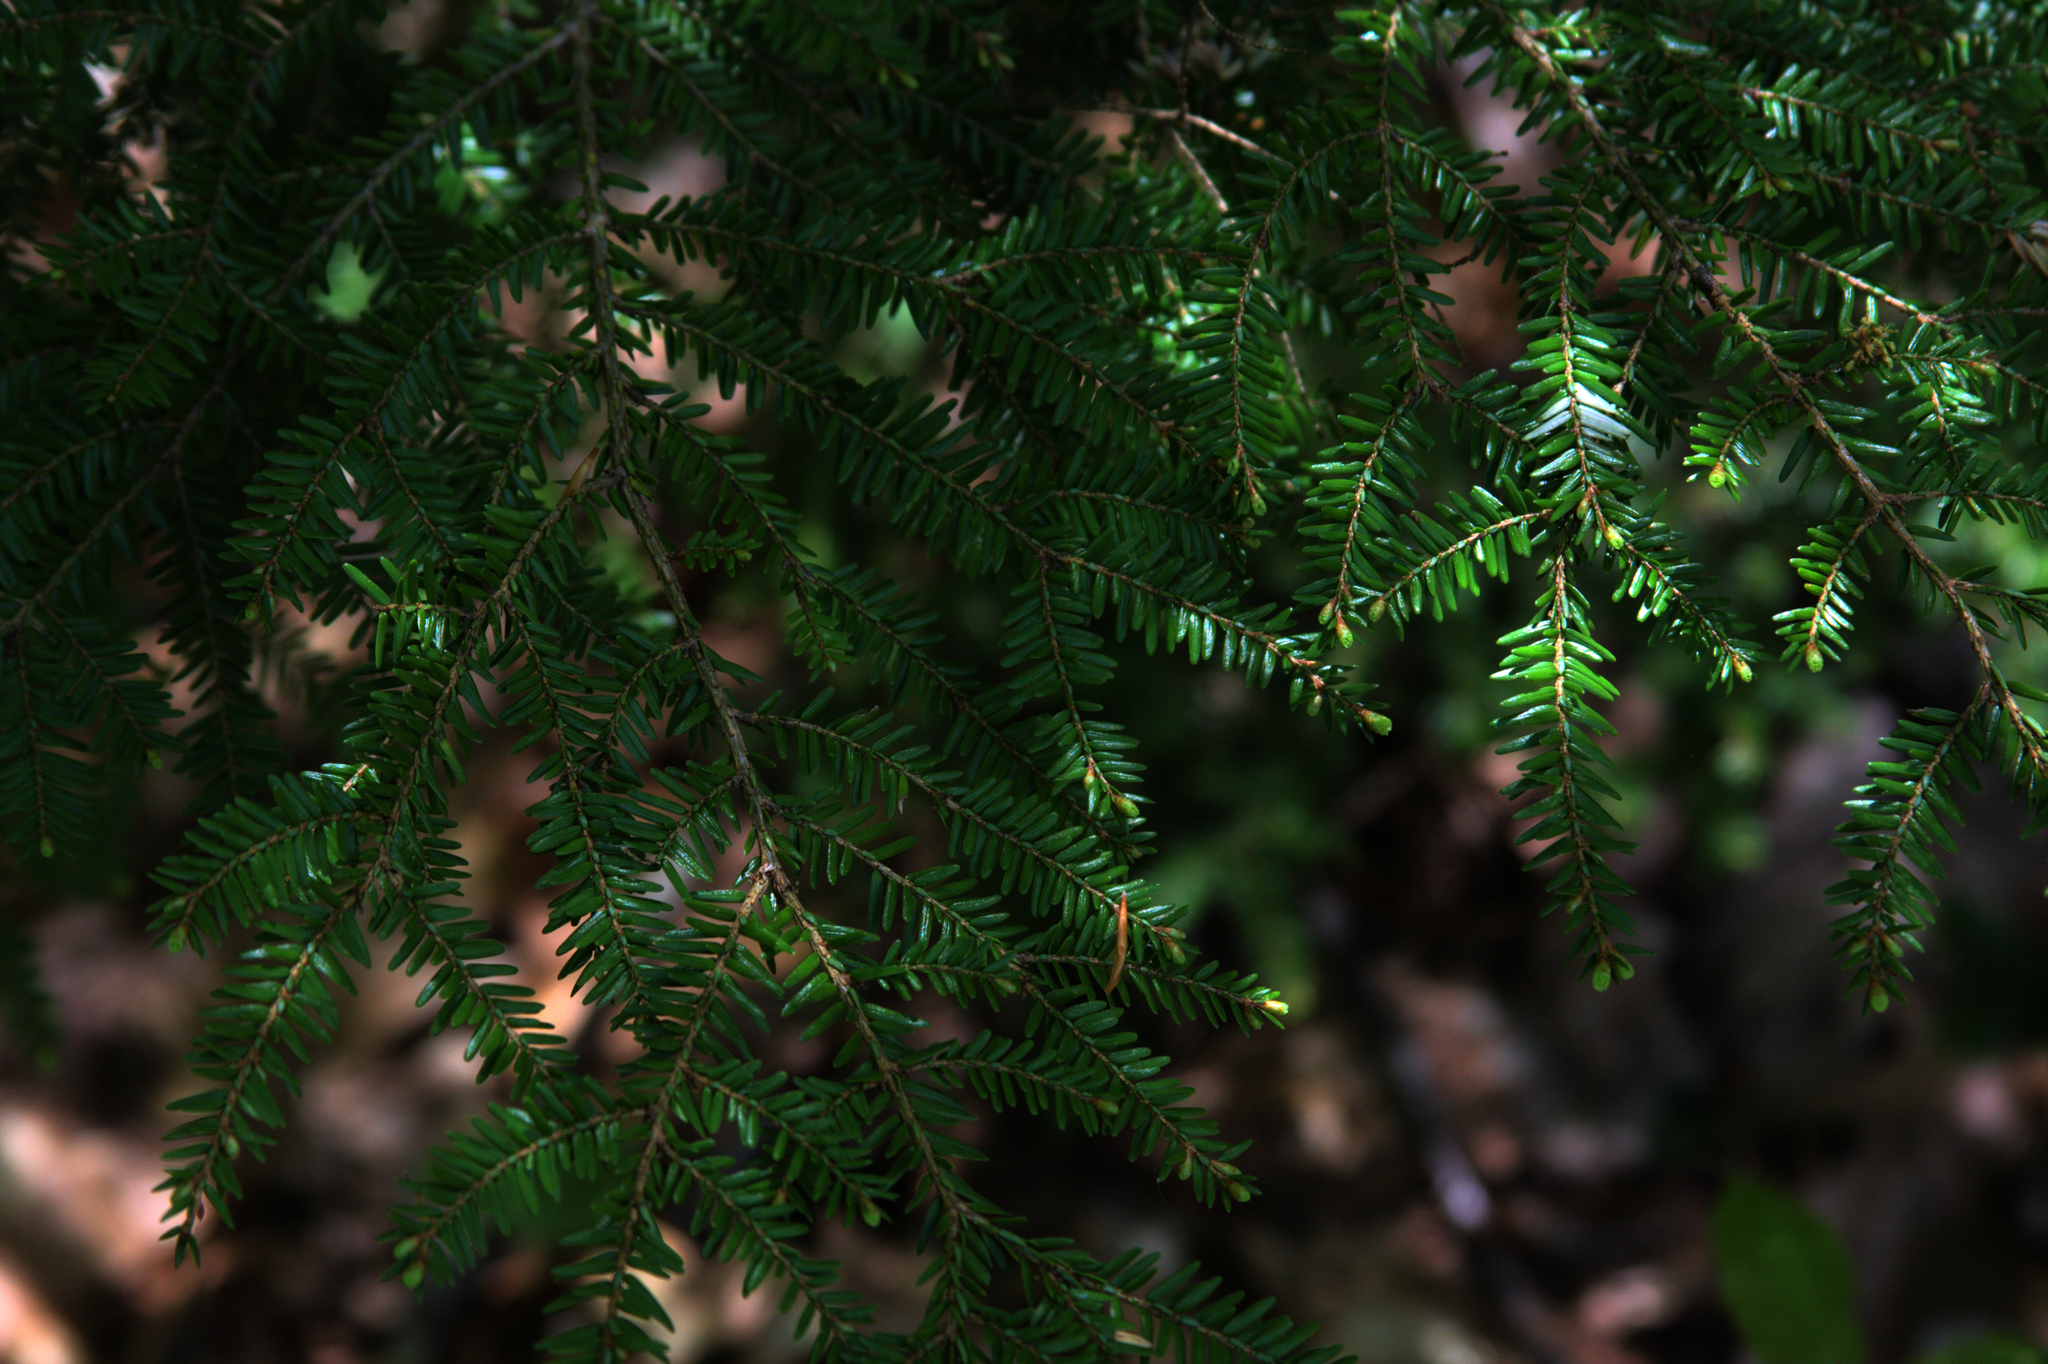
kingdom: Plantae
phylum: Tracheophyta
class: Pinopsida
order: Pinales
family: Pinaceae
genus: Tsuga
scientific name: Tsuga canadensis
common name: Eastern hemlock
